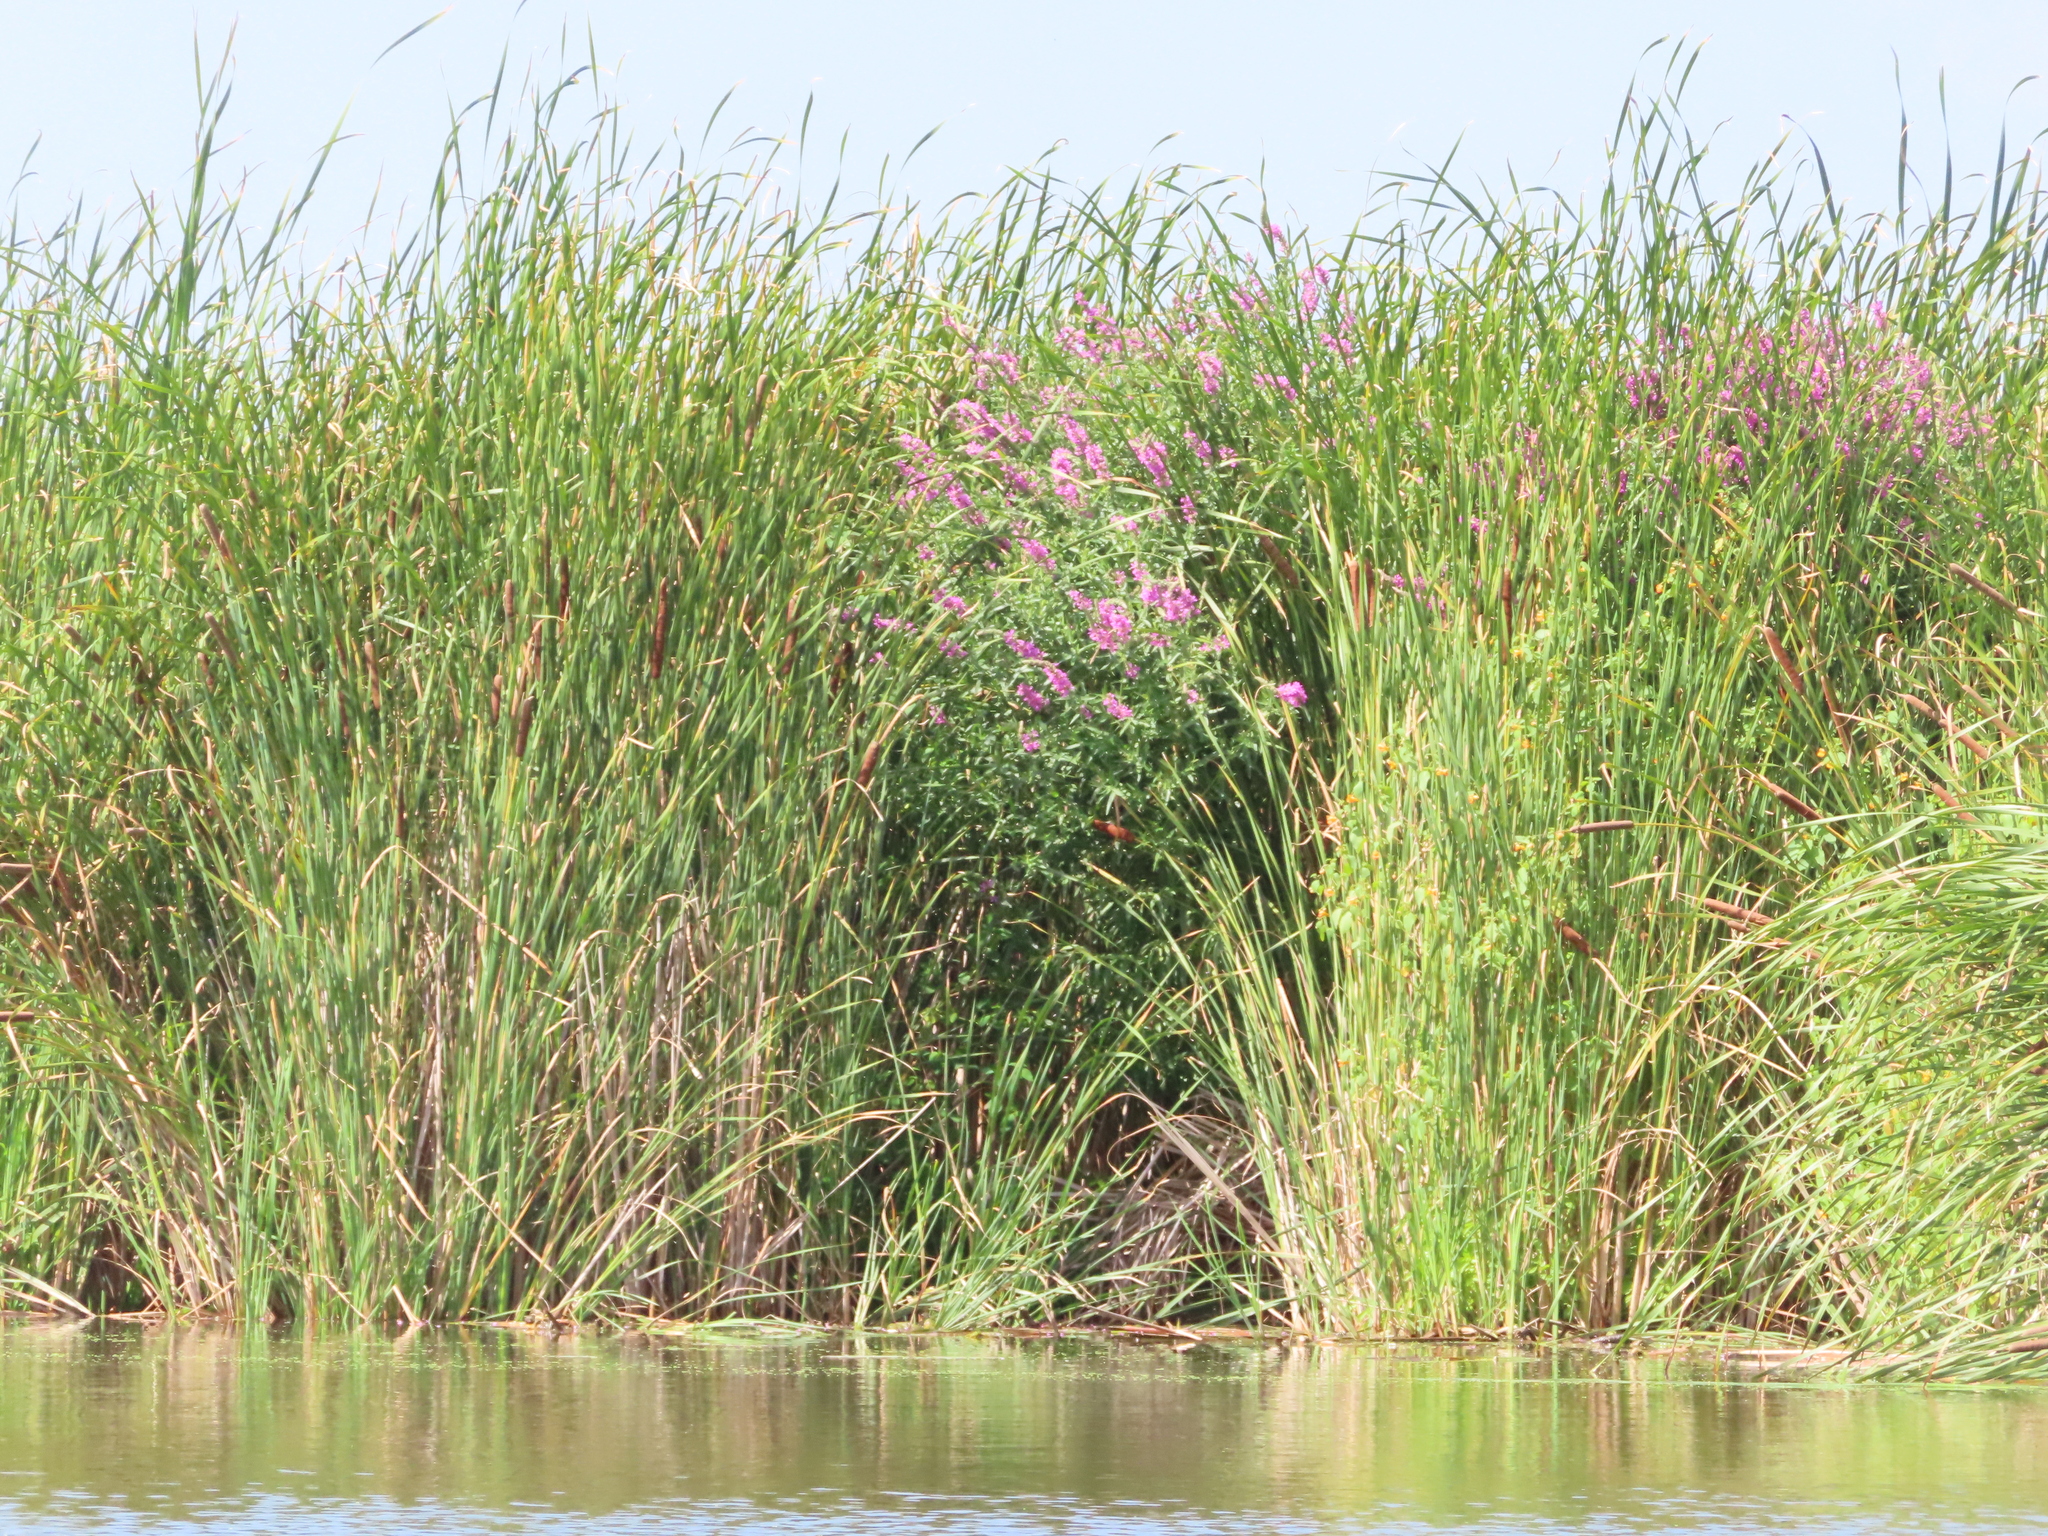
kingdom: Plantae
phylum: Tracheophyta
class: Magnoliopsida
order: Myrtales
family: Lythraceae
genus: Lythrum
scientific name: Lythrum salicaria
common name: Purple loosestrife
